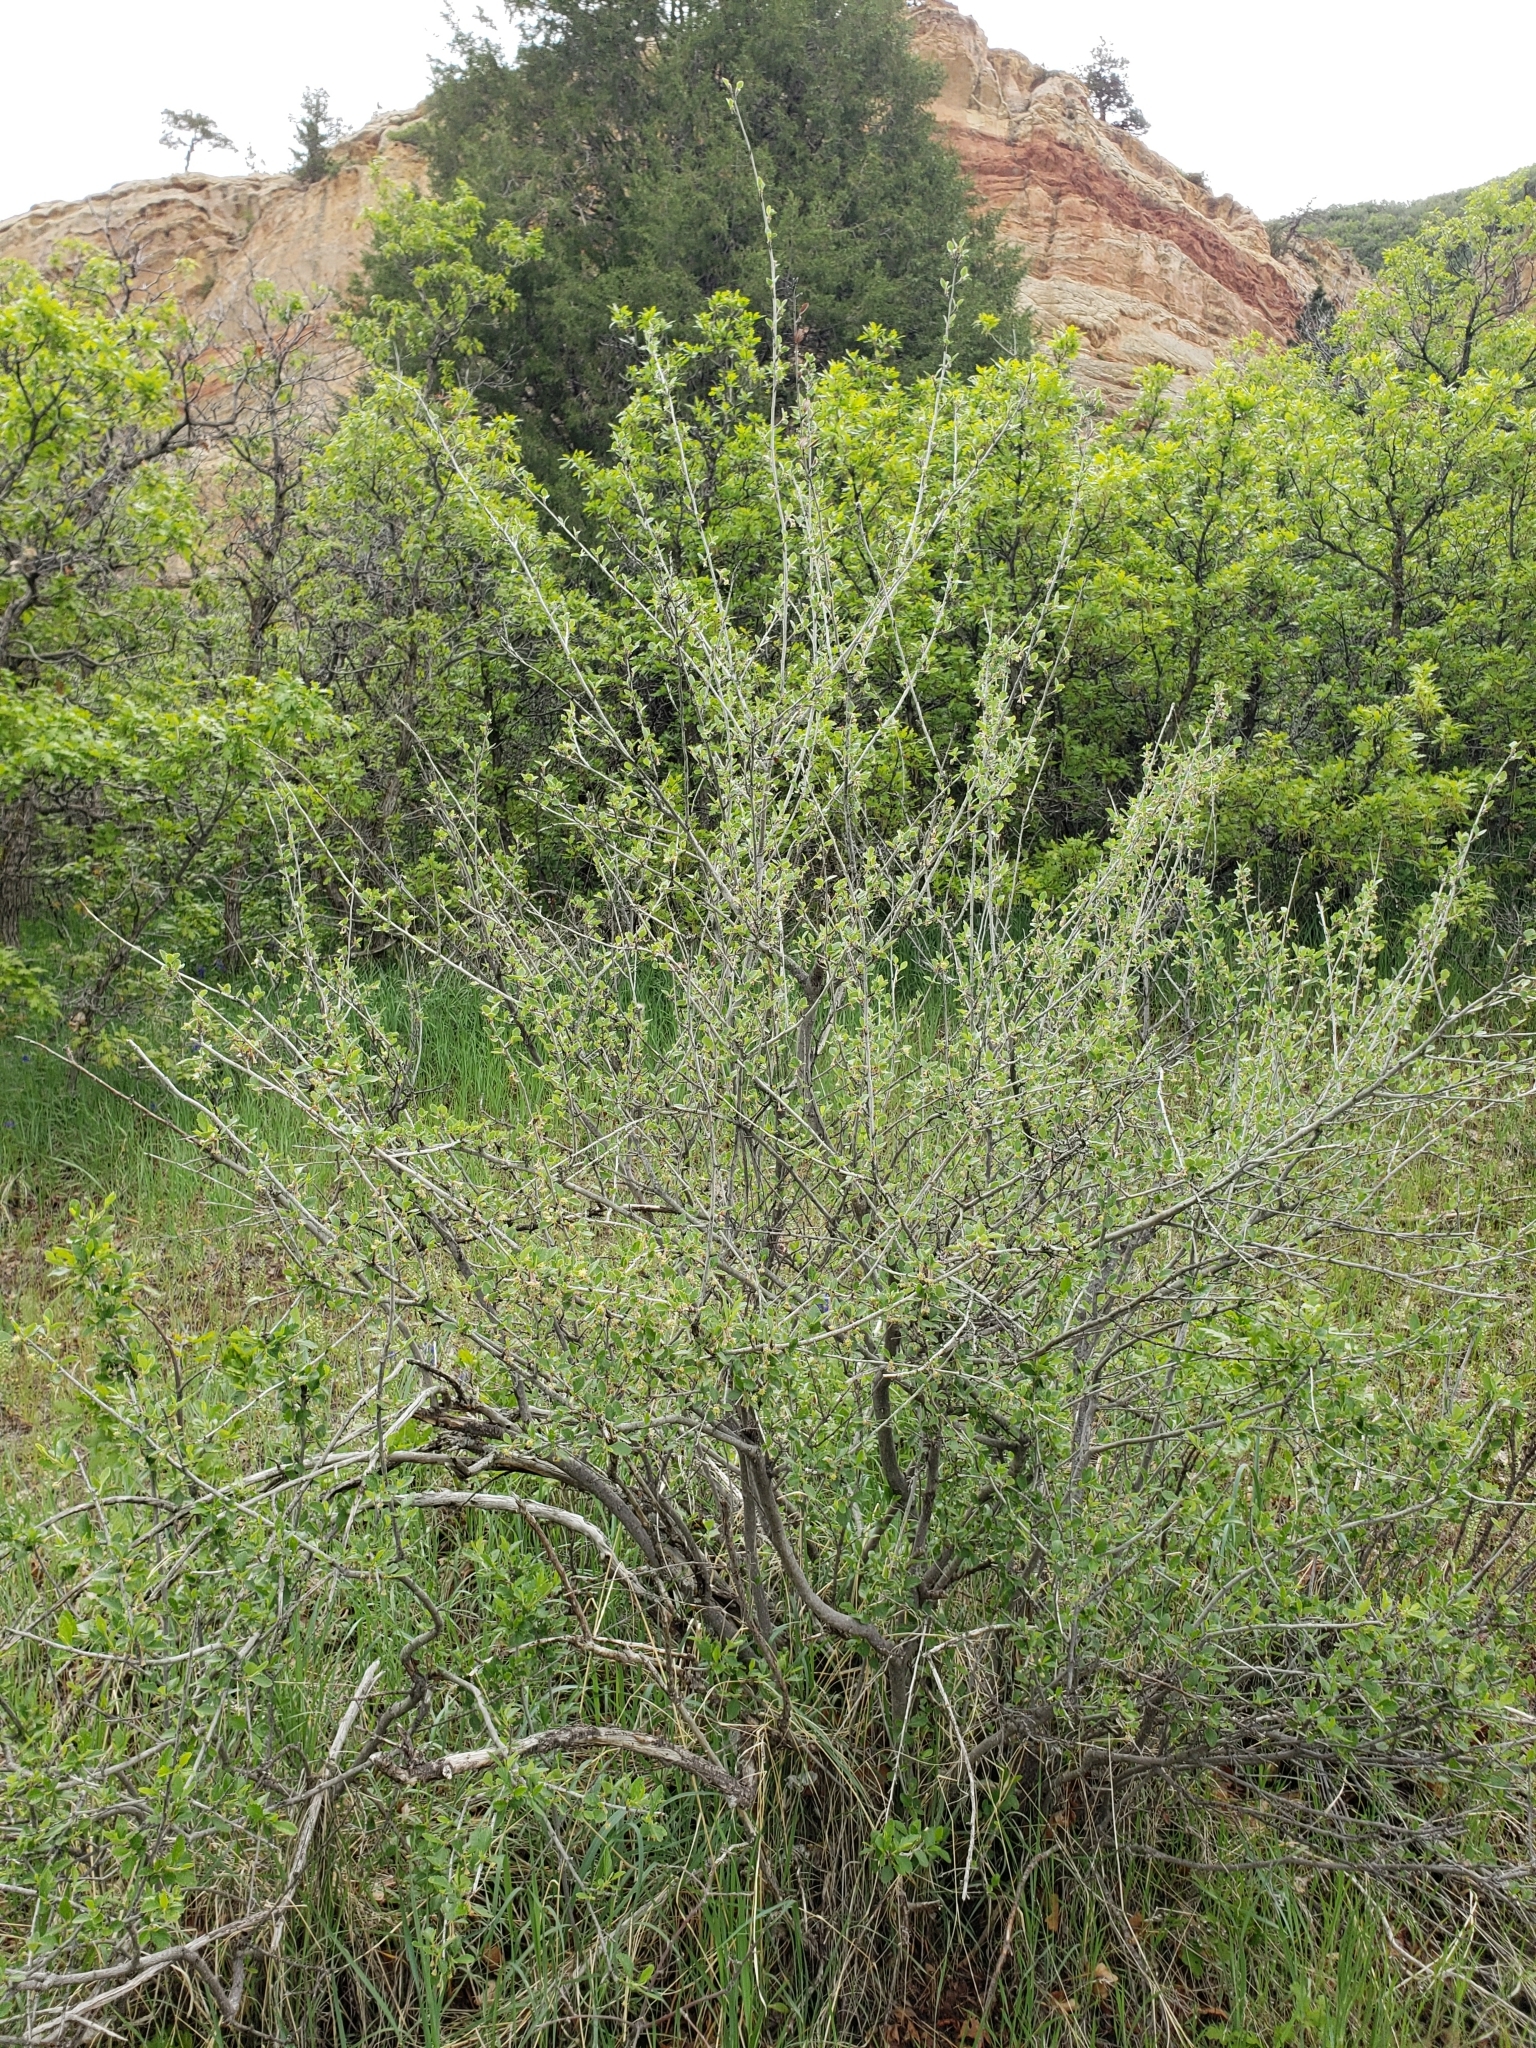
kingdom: Plantae
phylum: Tracheophyta
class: Magnoliopsida
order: Rosales
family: Rosaceae
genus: Cercocarpus
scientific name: Cercocarpus montanus
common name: Alder-leaf cercocarpus
